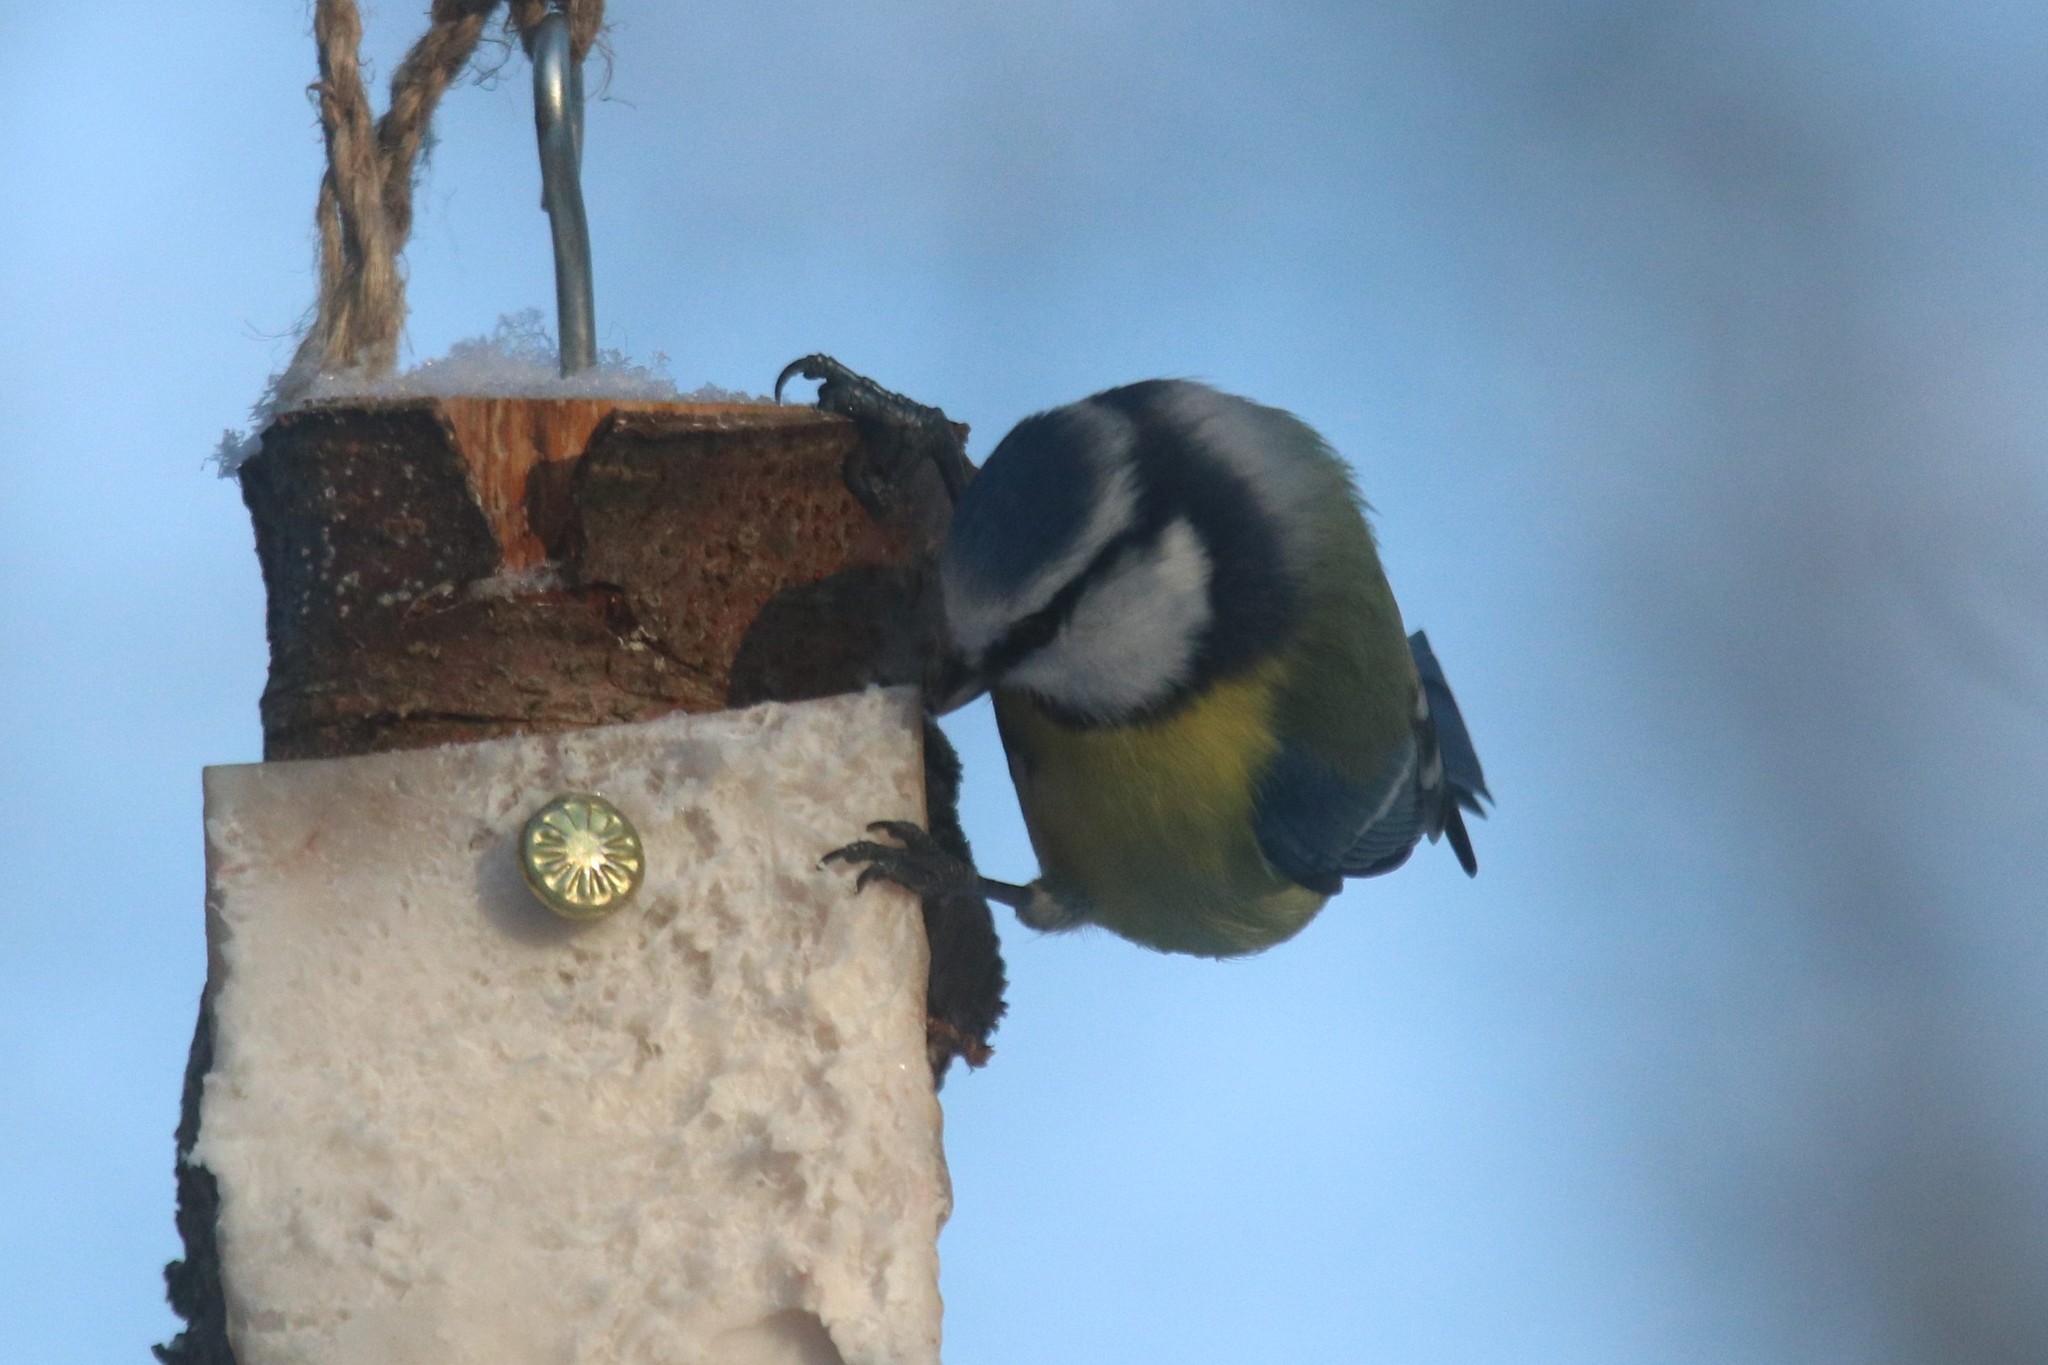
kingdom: Animalia
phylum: Chordata
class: Aves
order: Passeriformes
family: Paridae
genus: Cyanistes
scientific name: Cyanistes caeruleus
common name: Eurasian blue tit
